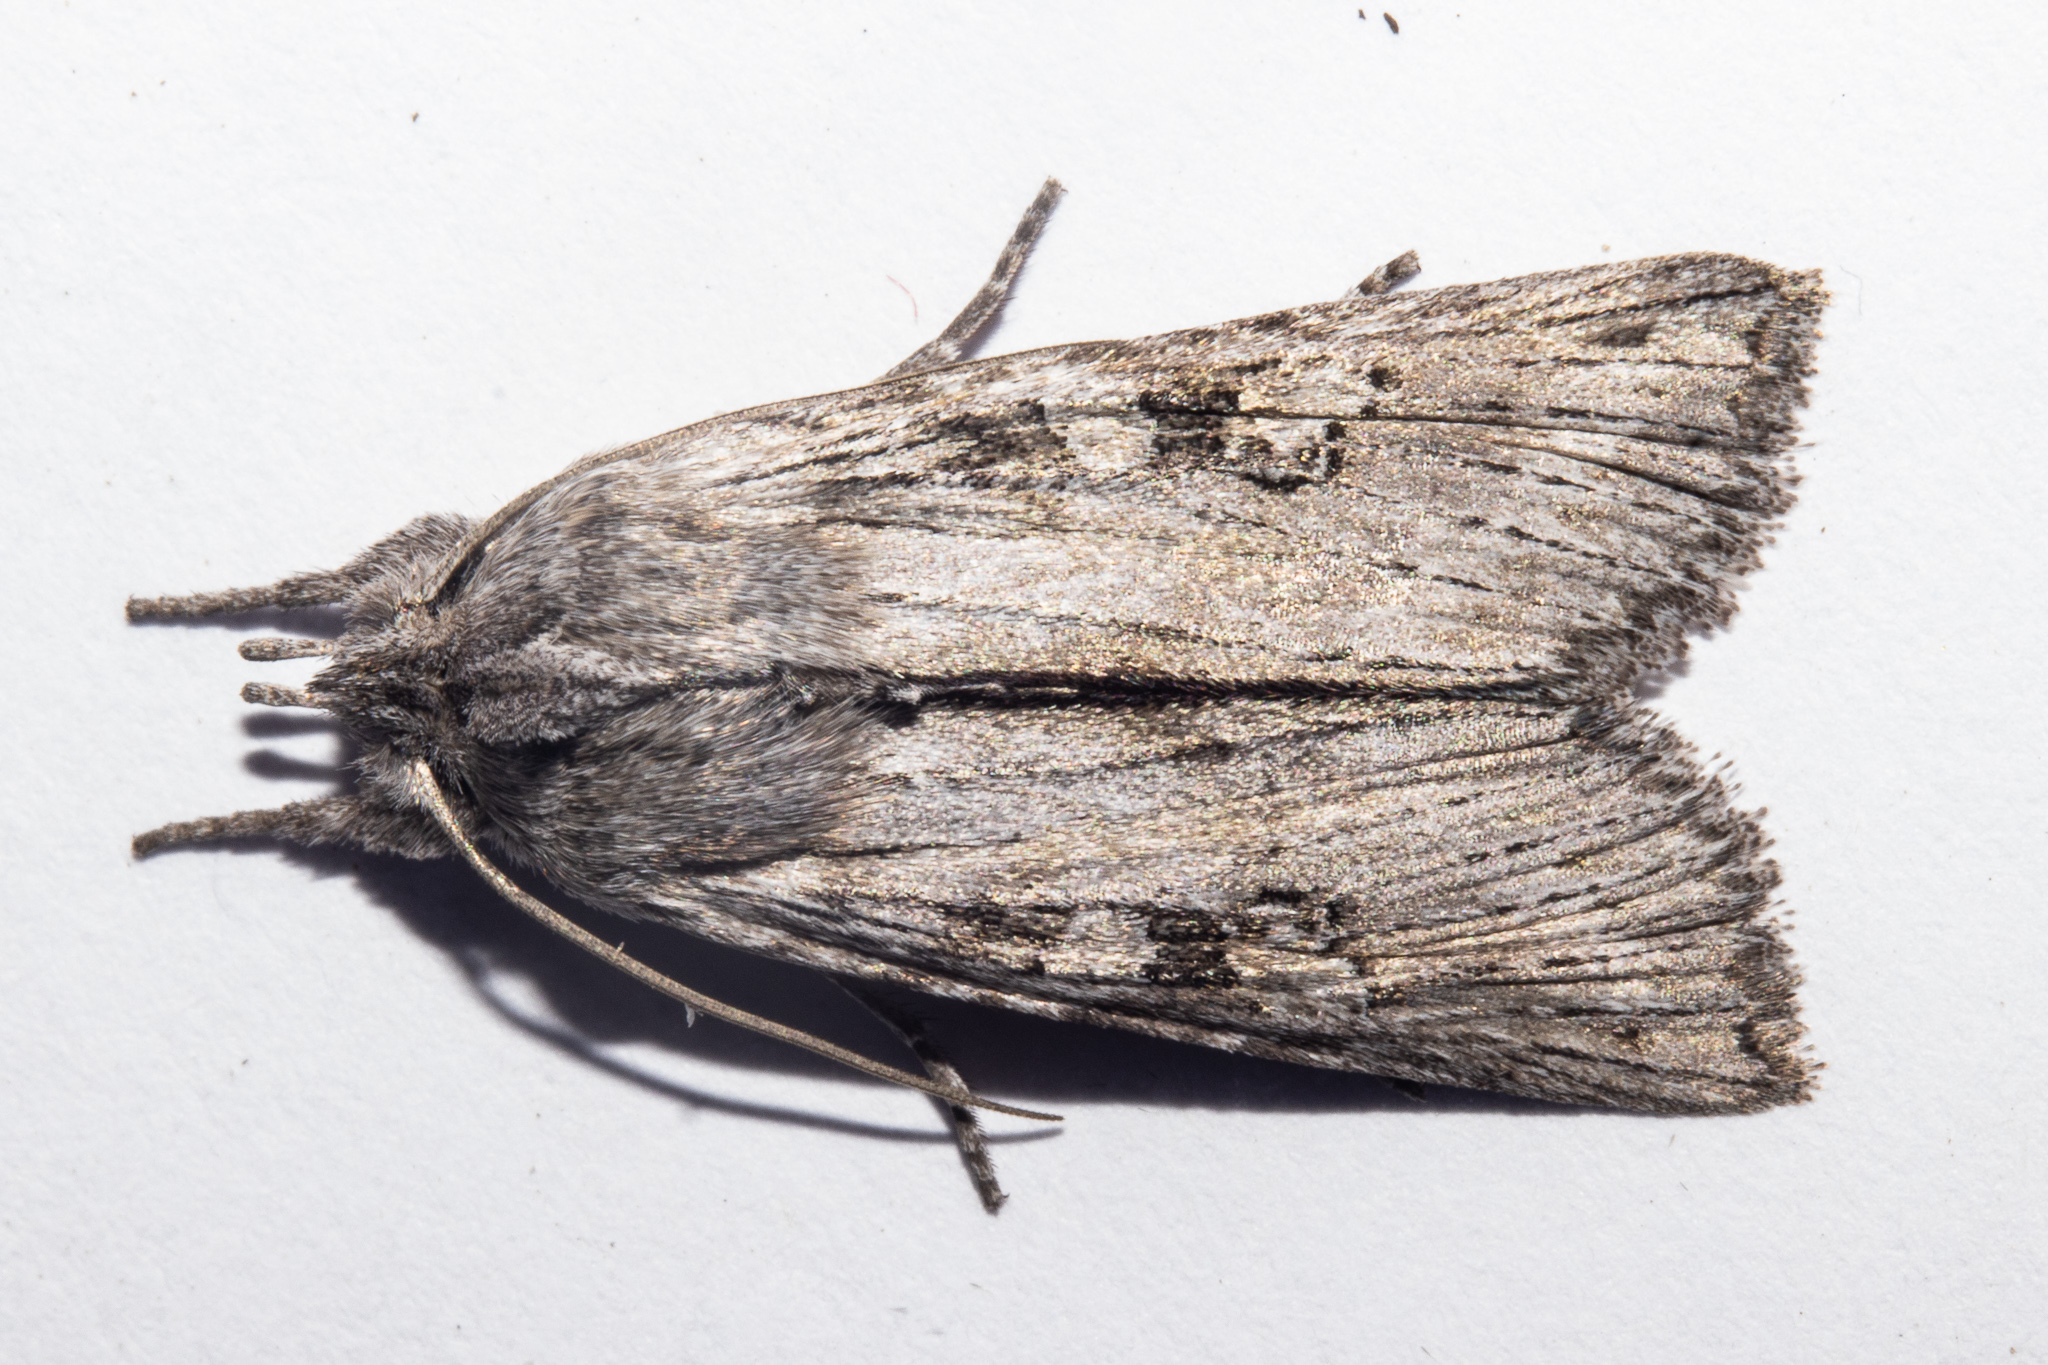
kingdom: Animalia
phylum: Arthropoda
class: Insecta
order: Lepidoptera
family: Noctuidae
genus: Physetica
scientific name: Physetica phricias
